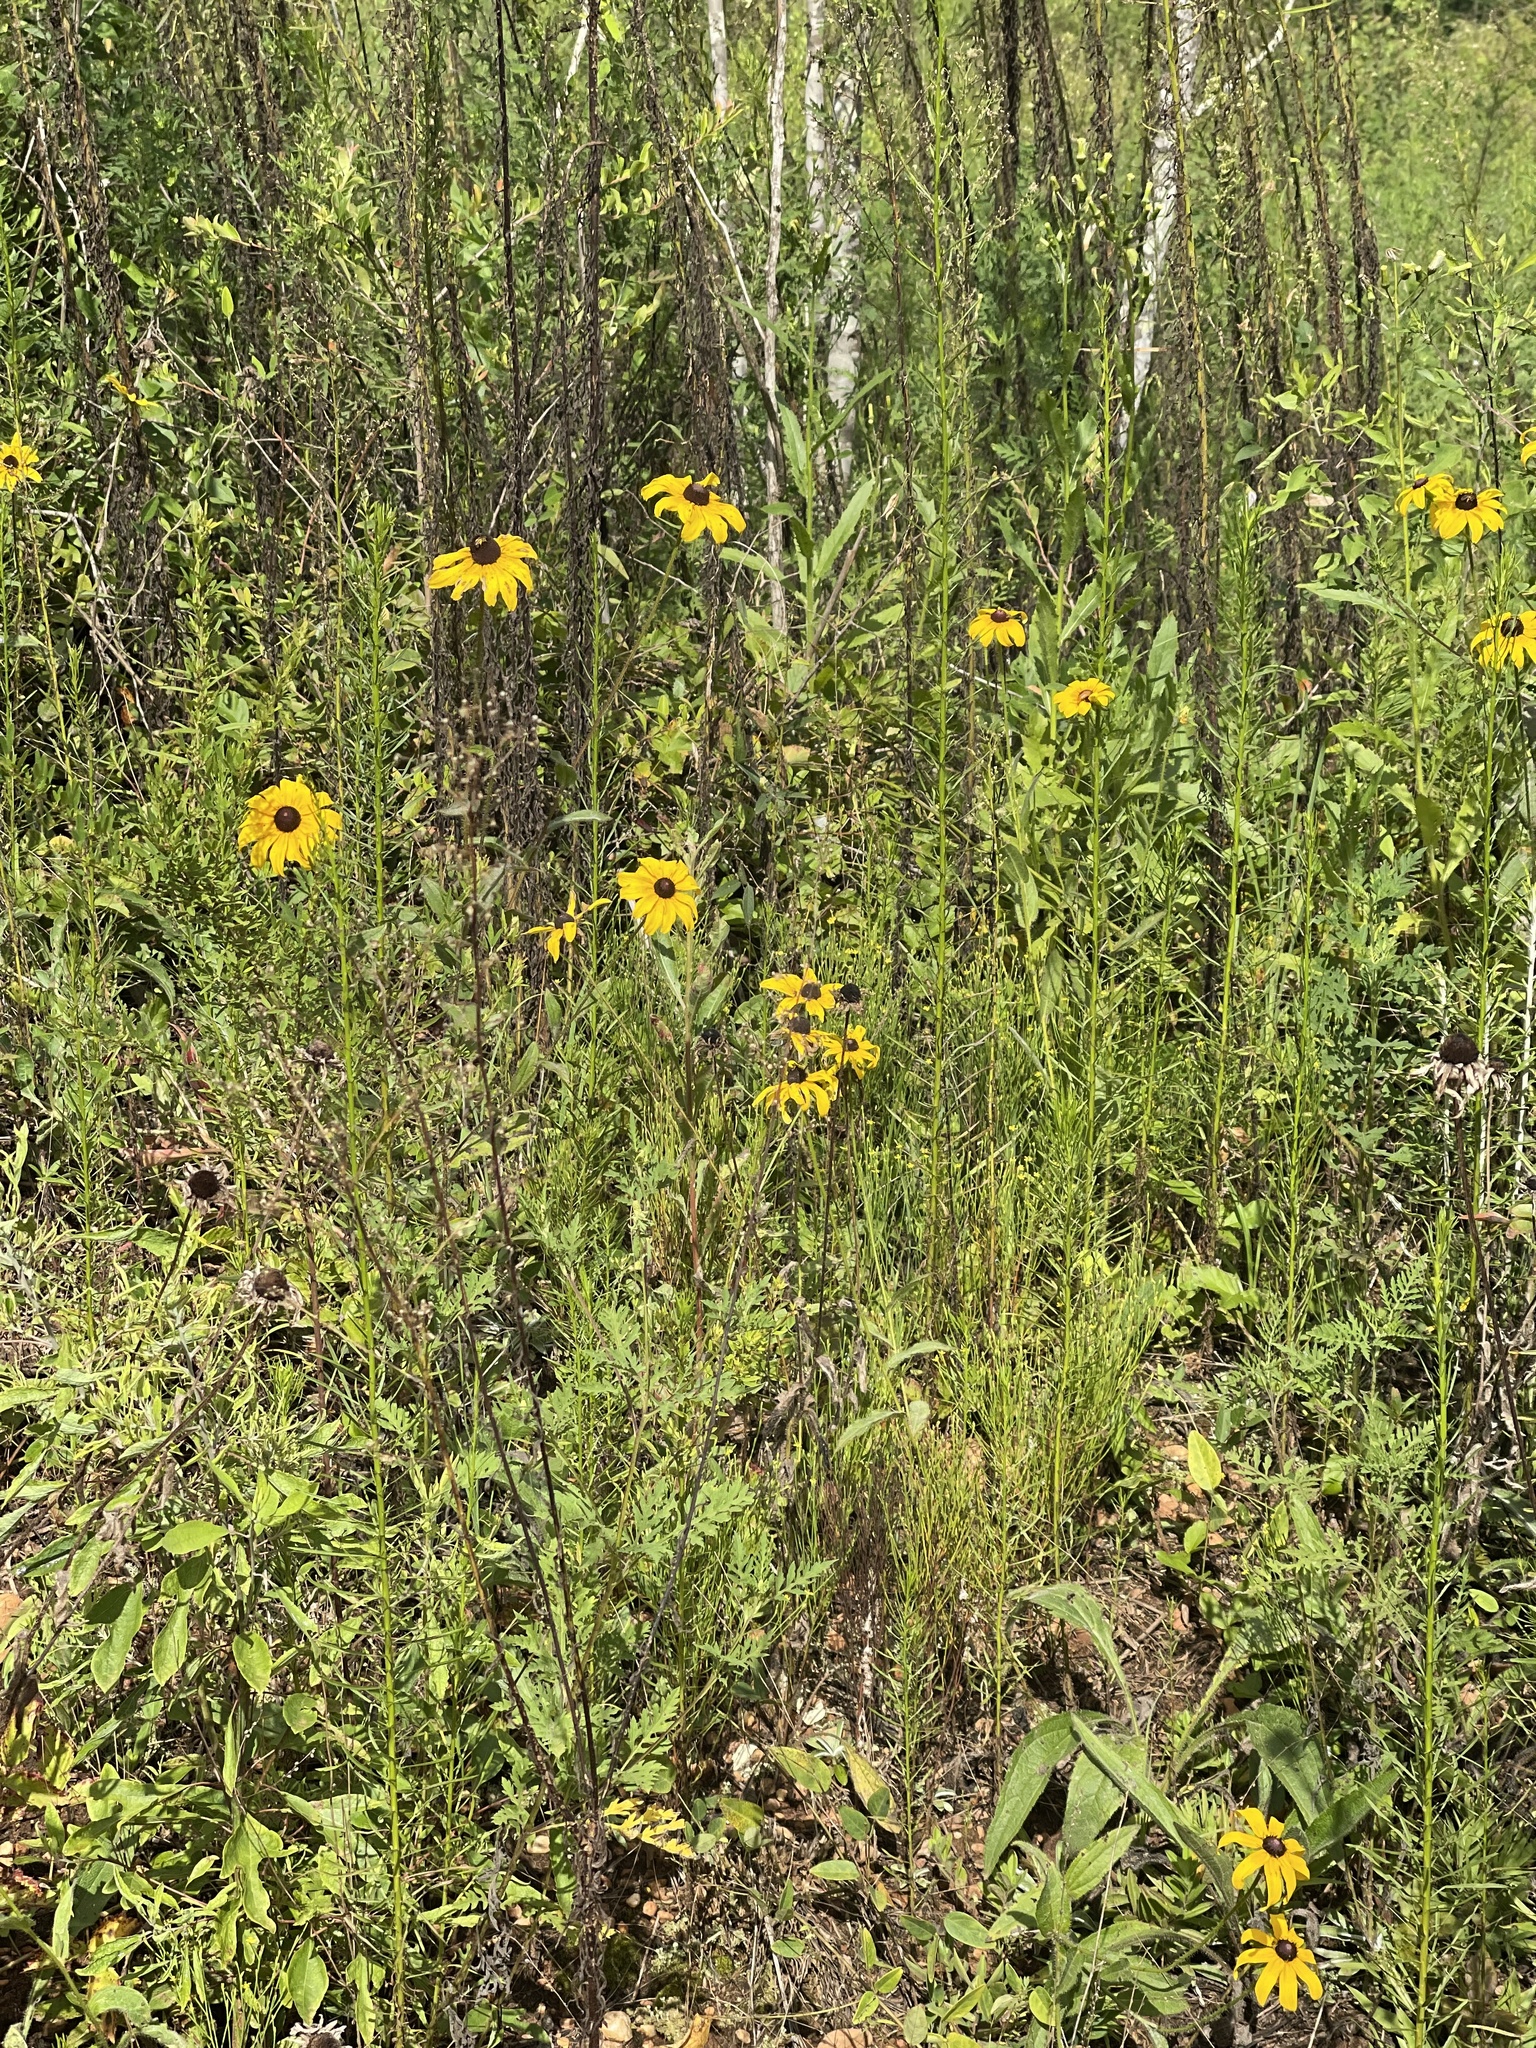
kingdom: Plantae
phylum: Tracheophyta
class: Magnoliopsida
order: Asterales
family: Asteraceae
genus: Rudbeckia
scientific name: Rudbeckia hirta
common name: Black-eyed-susan
